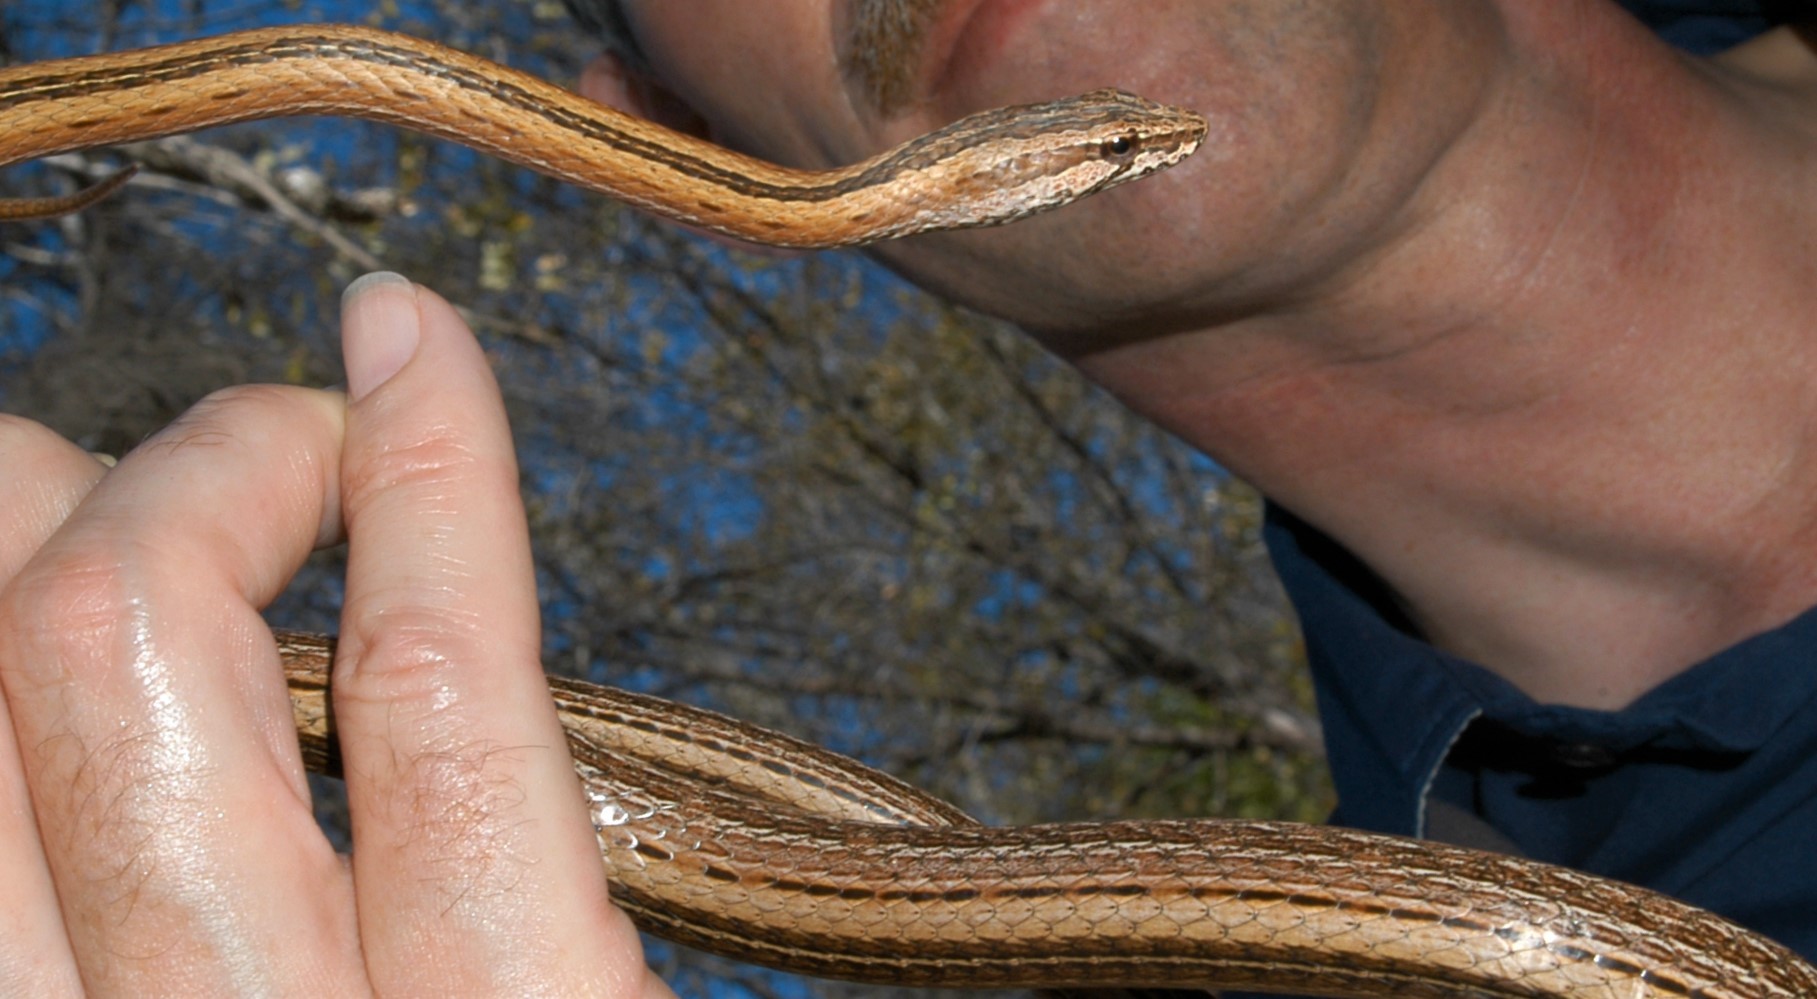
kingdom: Animalia
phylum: Chordata
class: Squamata
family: Psammophiidae
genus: Mimophis
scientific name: Mimophis occultus
